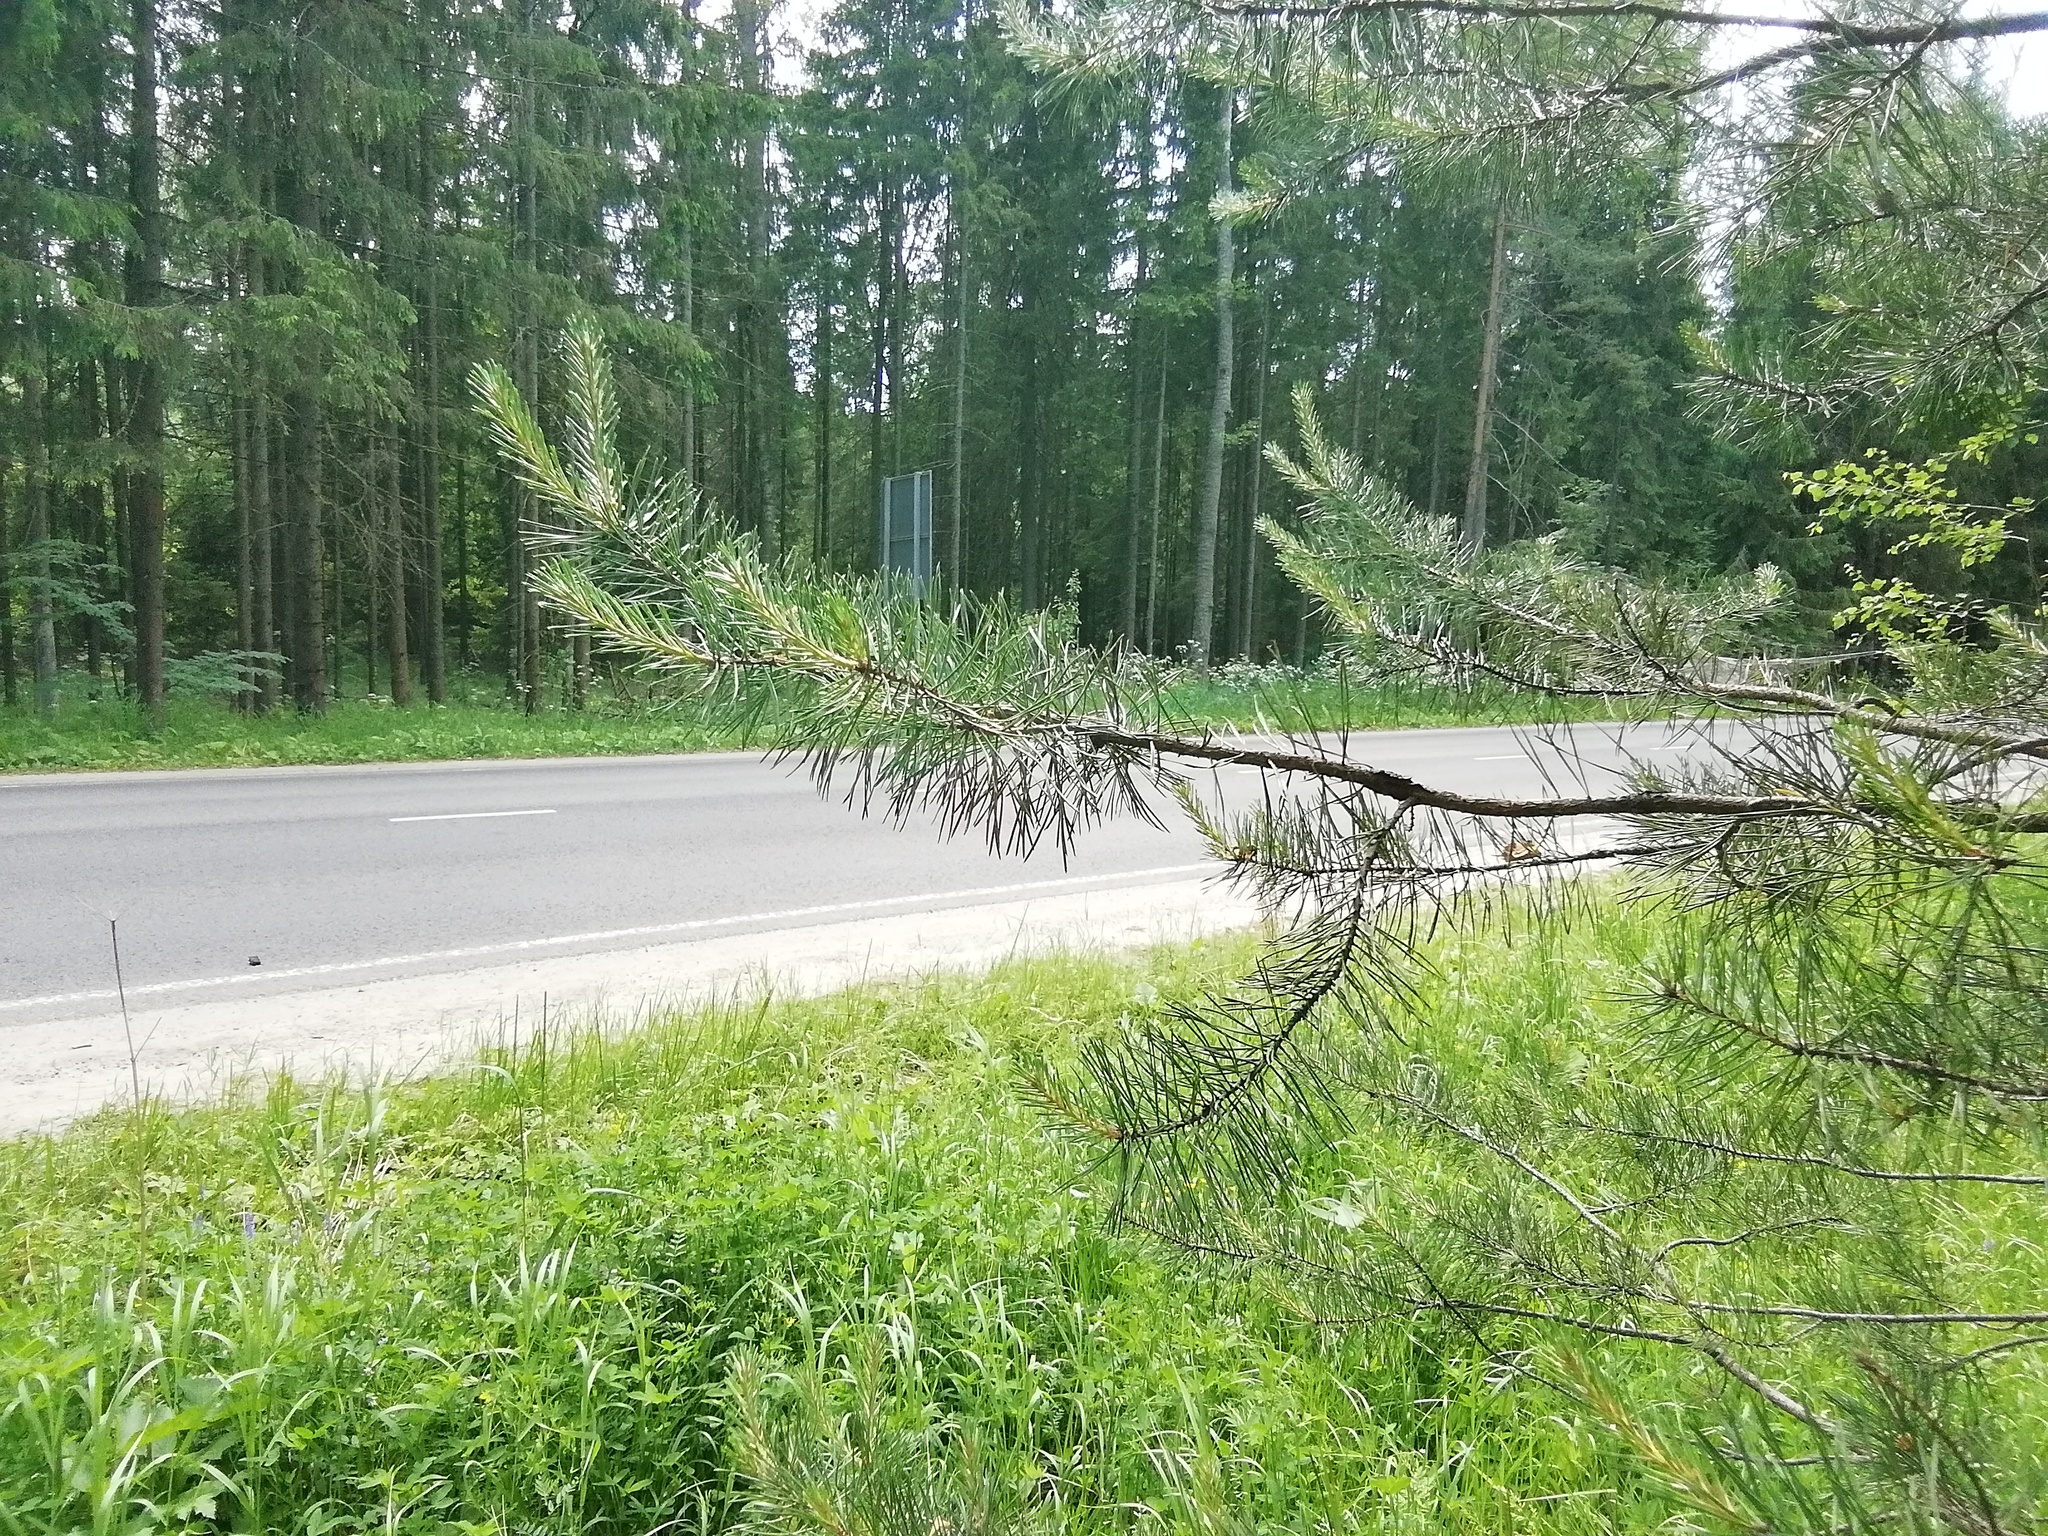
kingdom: Plantae
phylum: Tracheophyta
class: Pinopsida
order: Pinales
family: Pinaceae
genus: Pinus
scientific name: Pinus sylvestris
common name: Scots pine
